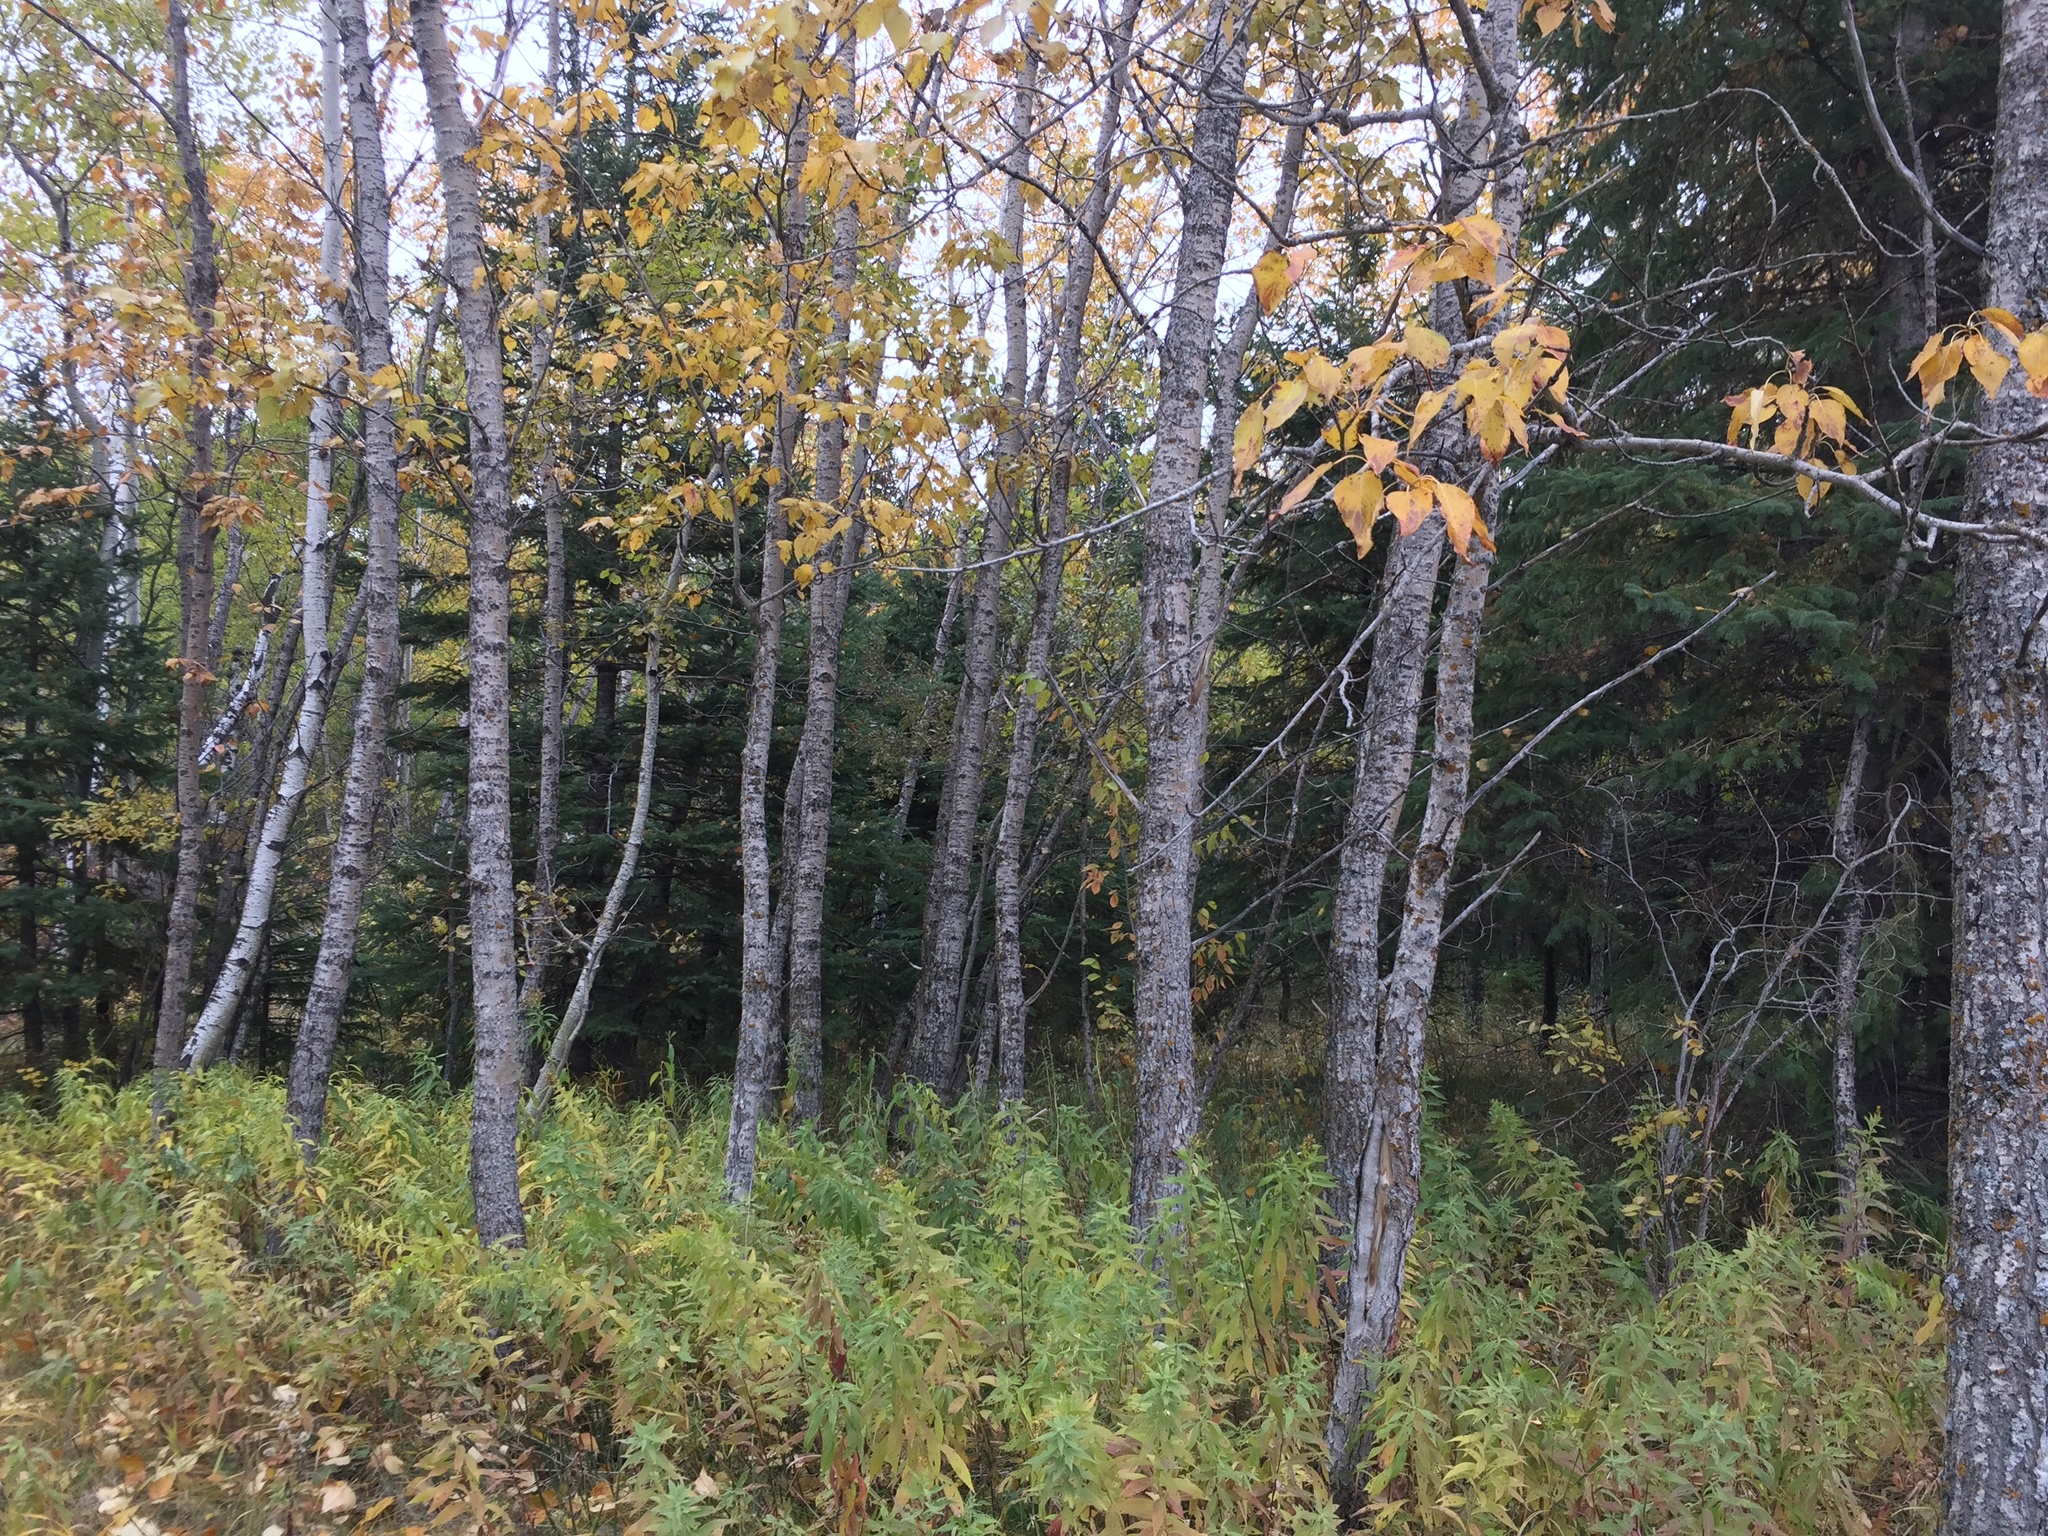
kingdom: Plantae
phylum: Tracheophyta
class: Magnoliopsida
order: Malpighiales
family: Salicaceae
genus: Populus
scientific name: Populus balsamifera
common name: Balsam poplar
